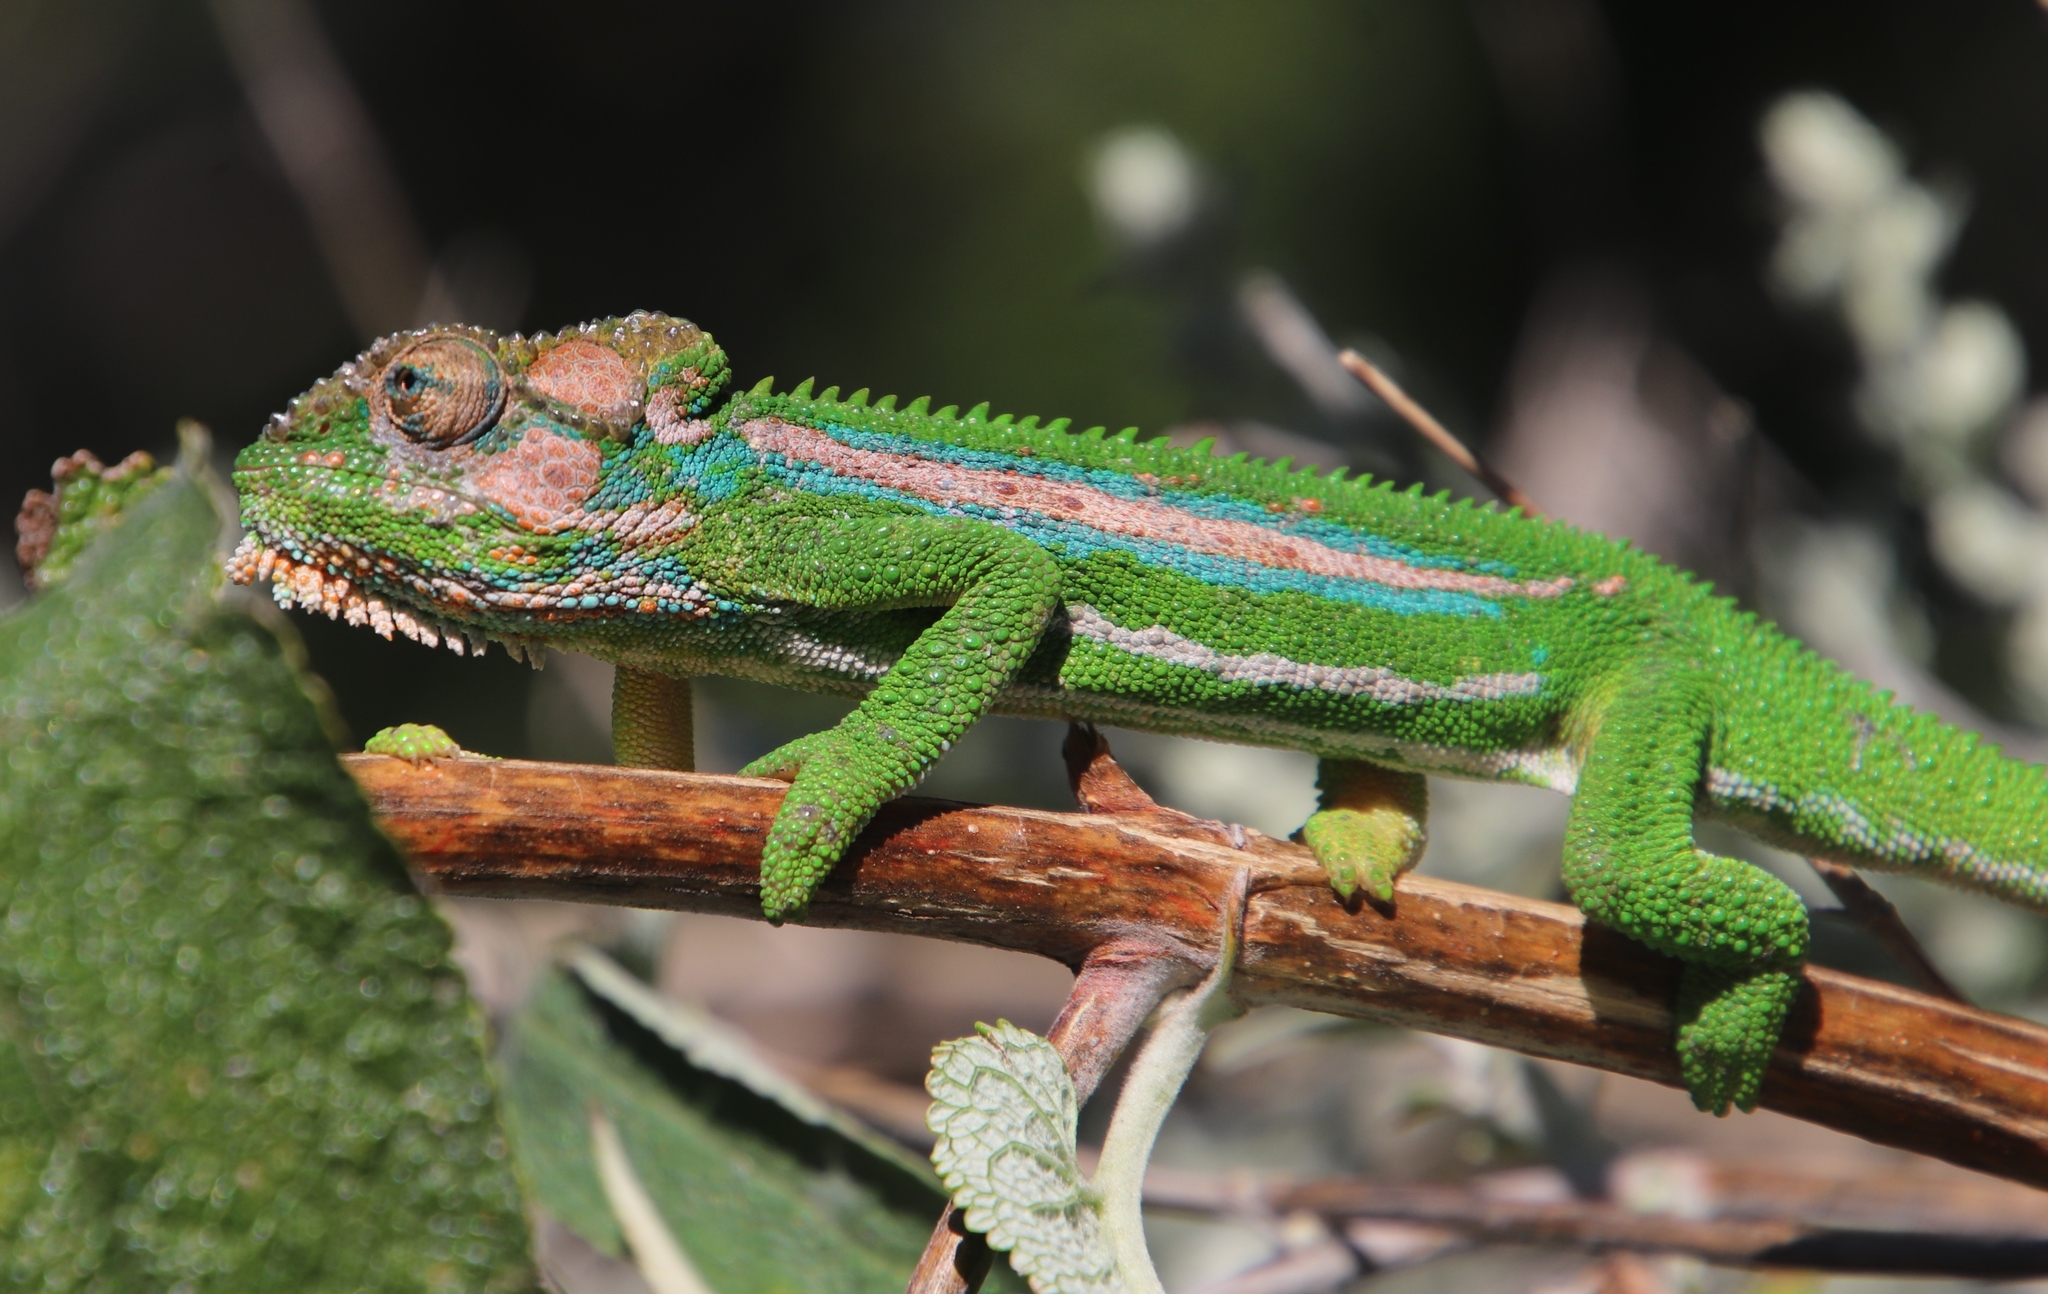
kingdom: Animalia
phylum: Chordata
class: Squamata
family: Chamaeleonidae
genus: Bradypodion
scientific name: Bradypodion pumilum
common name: Cape dwarf chameleon
